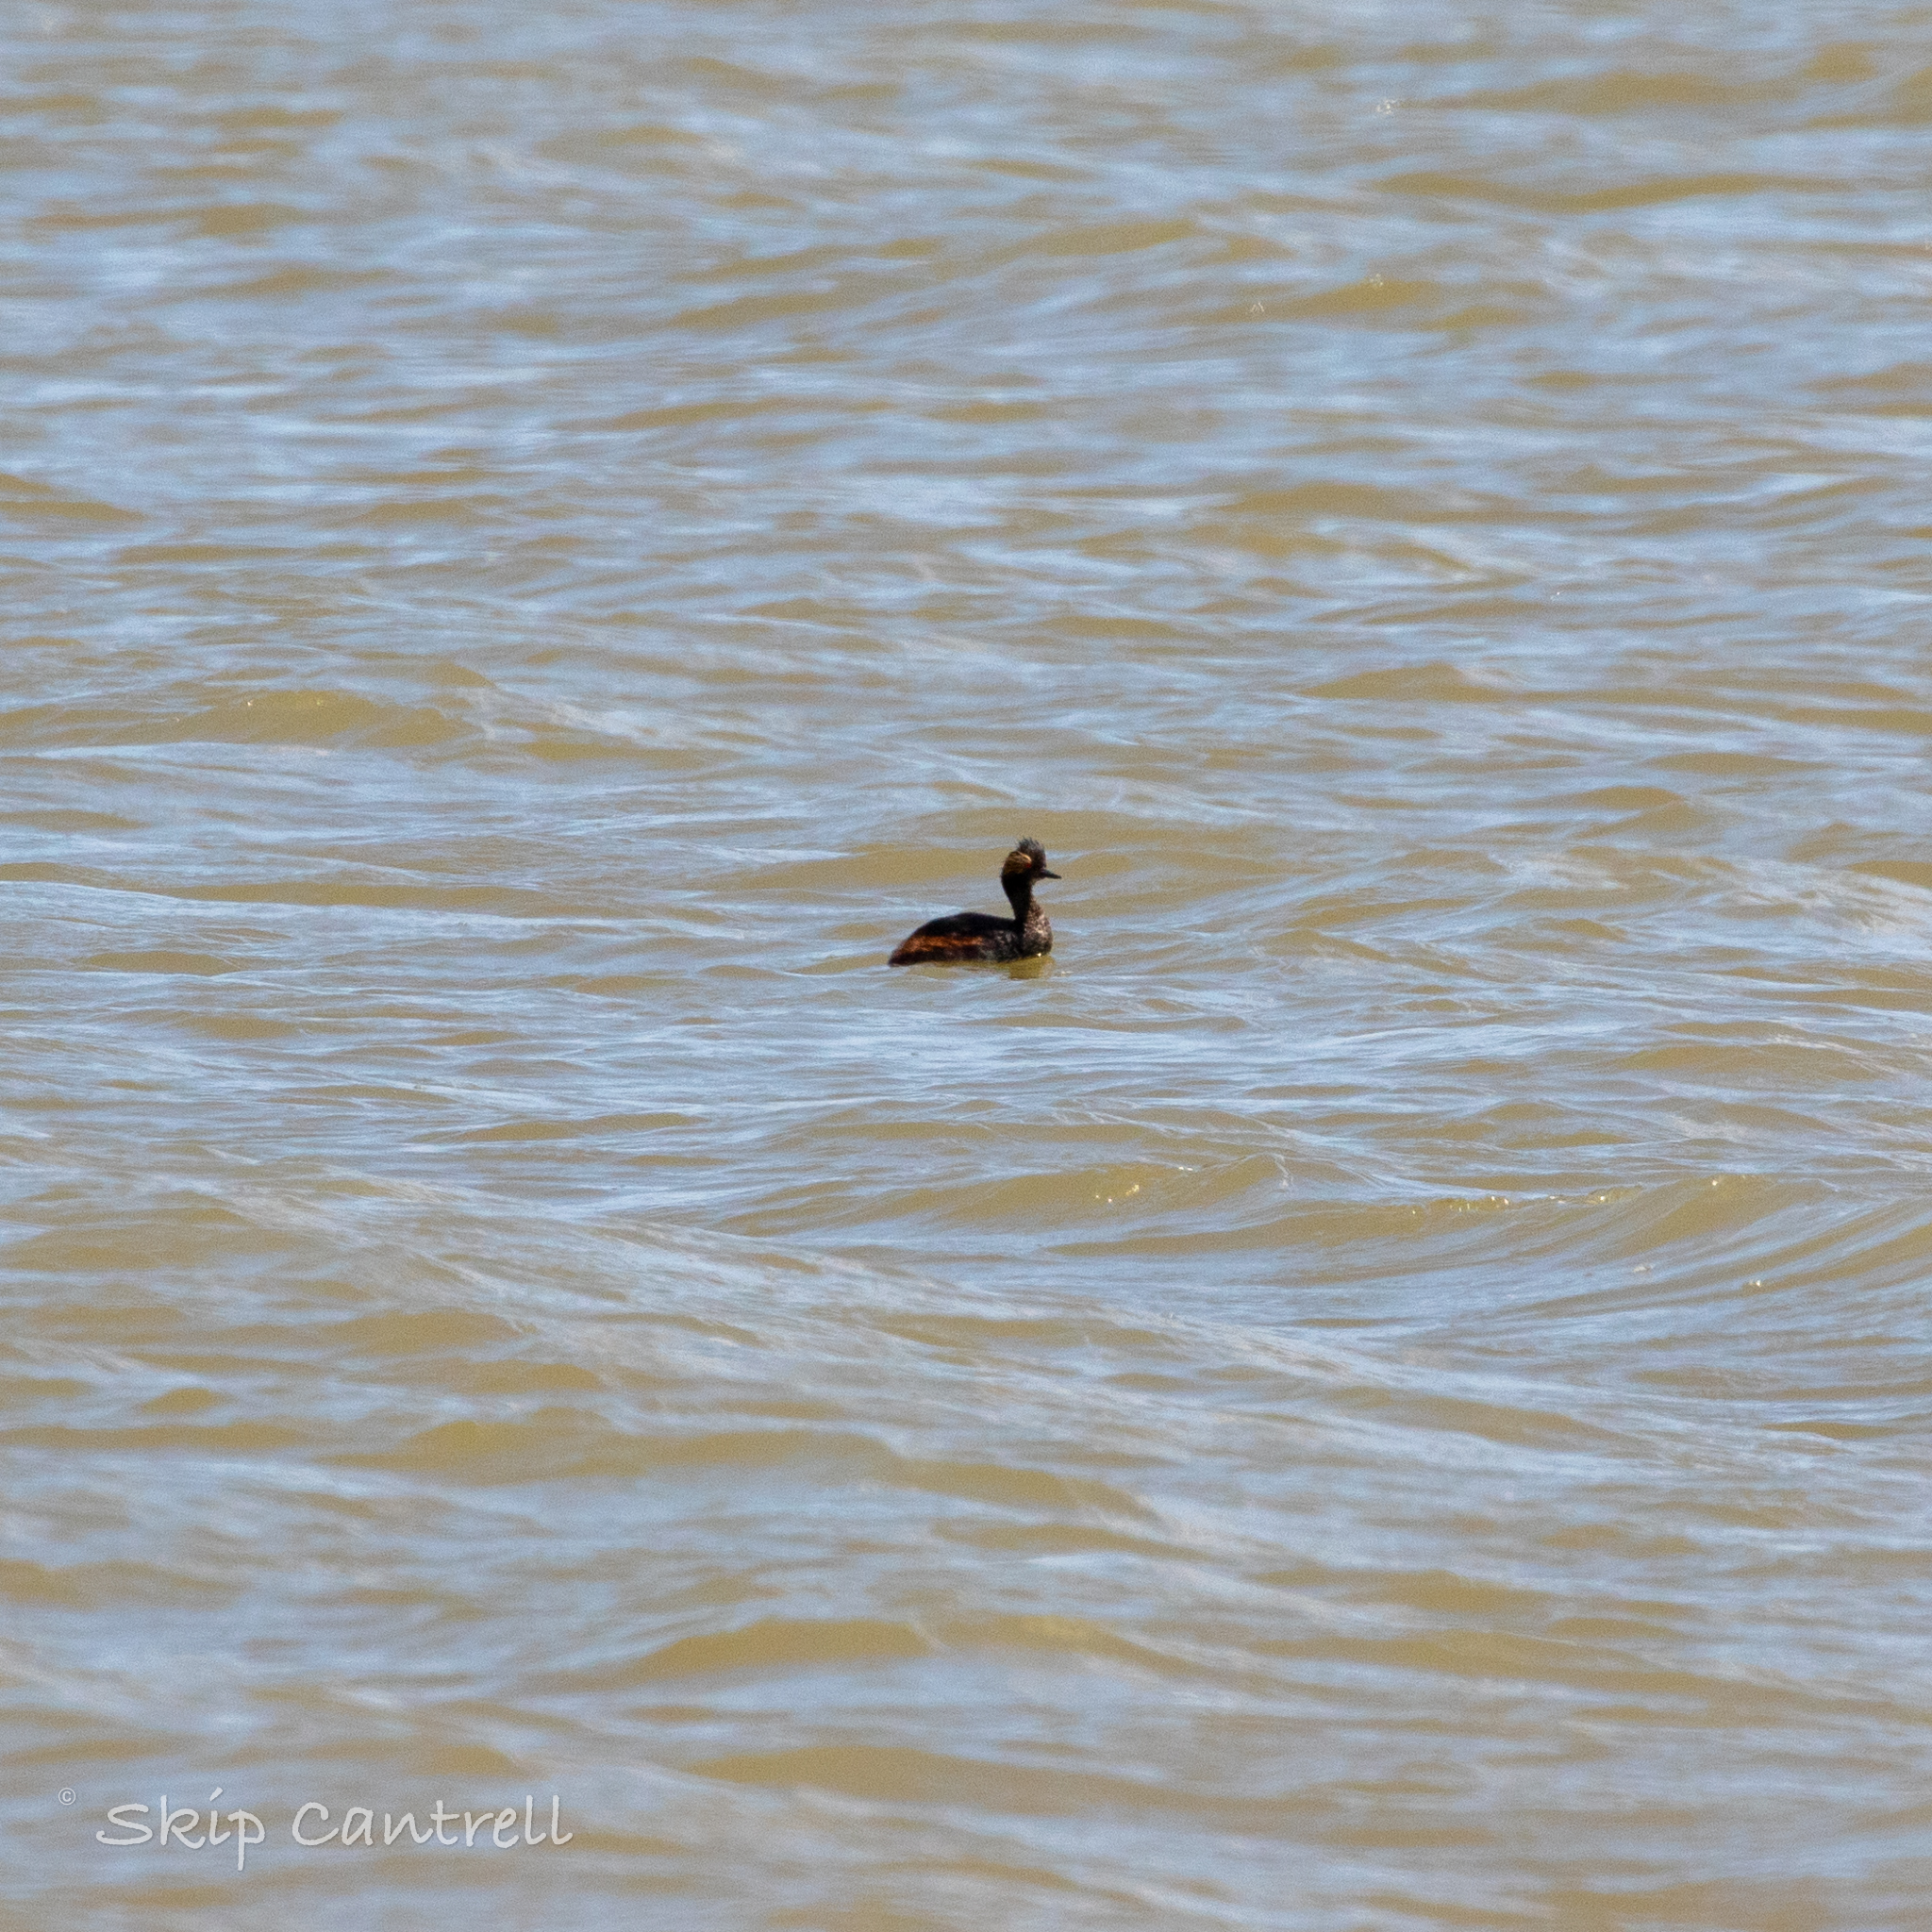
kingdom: Animalia
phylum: Chordata
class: Aves
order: Podicipediformes
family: Podicipedidae
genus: Podiceps
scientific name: Podiceps nigricollis
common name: Black-necked grebe
